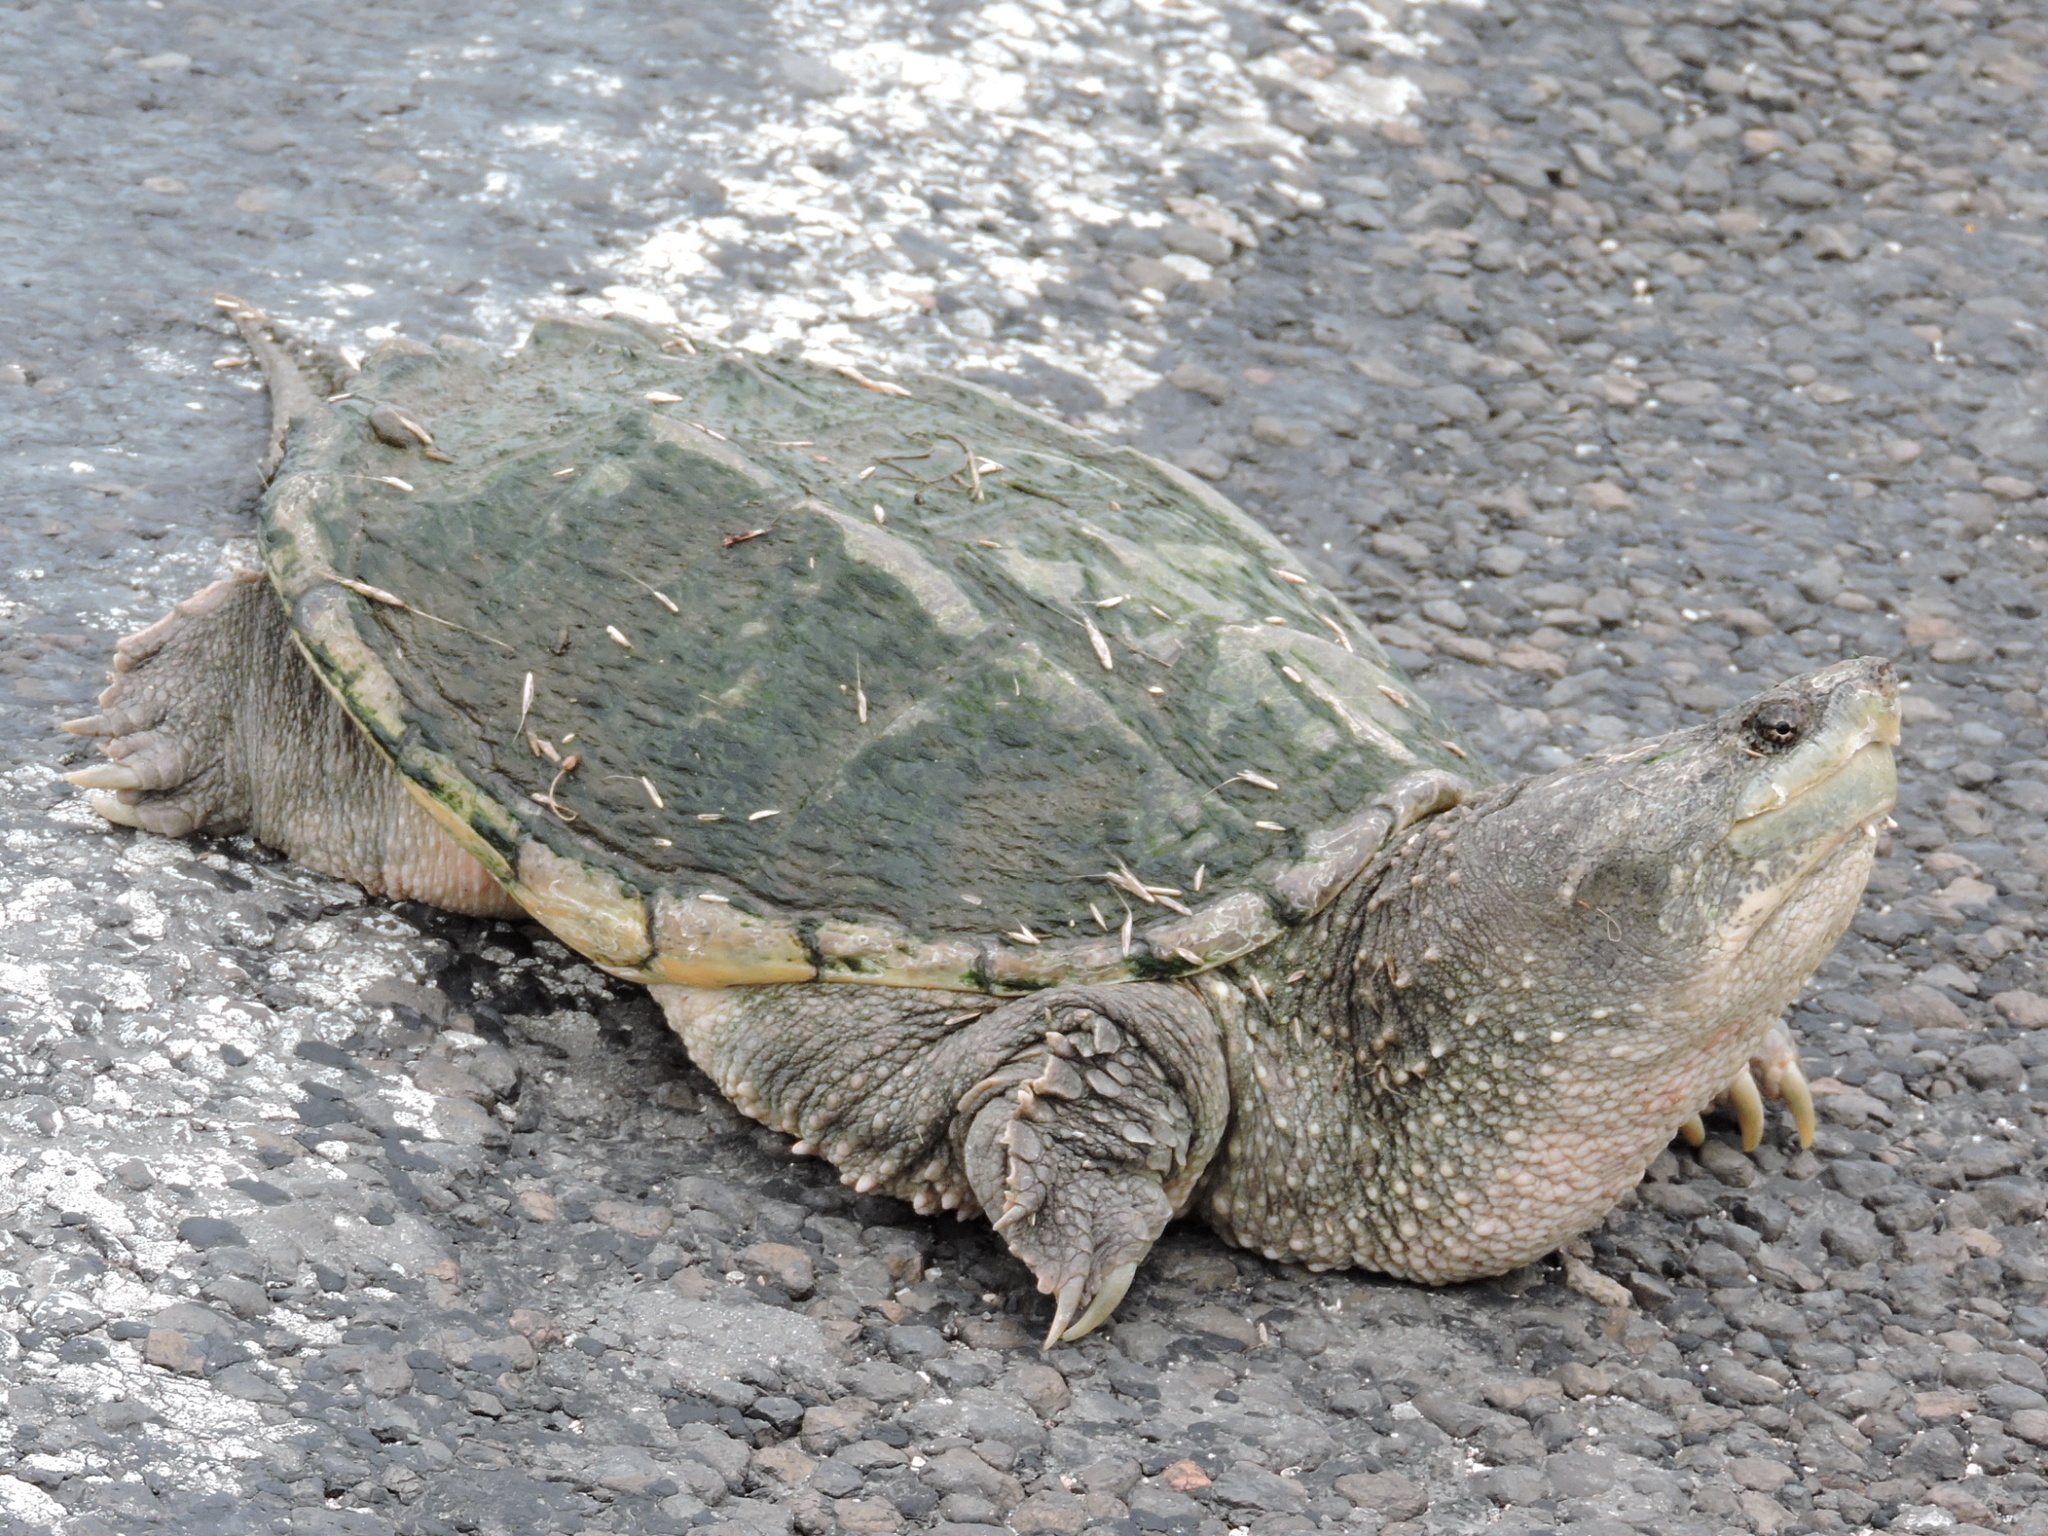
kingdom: Animalia
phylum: Chordata
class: Testudines
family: Chelydridae
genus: Chelydra
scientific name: Chelydra serpentina
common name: Common snapping turtle
